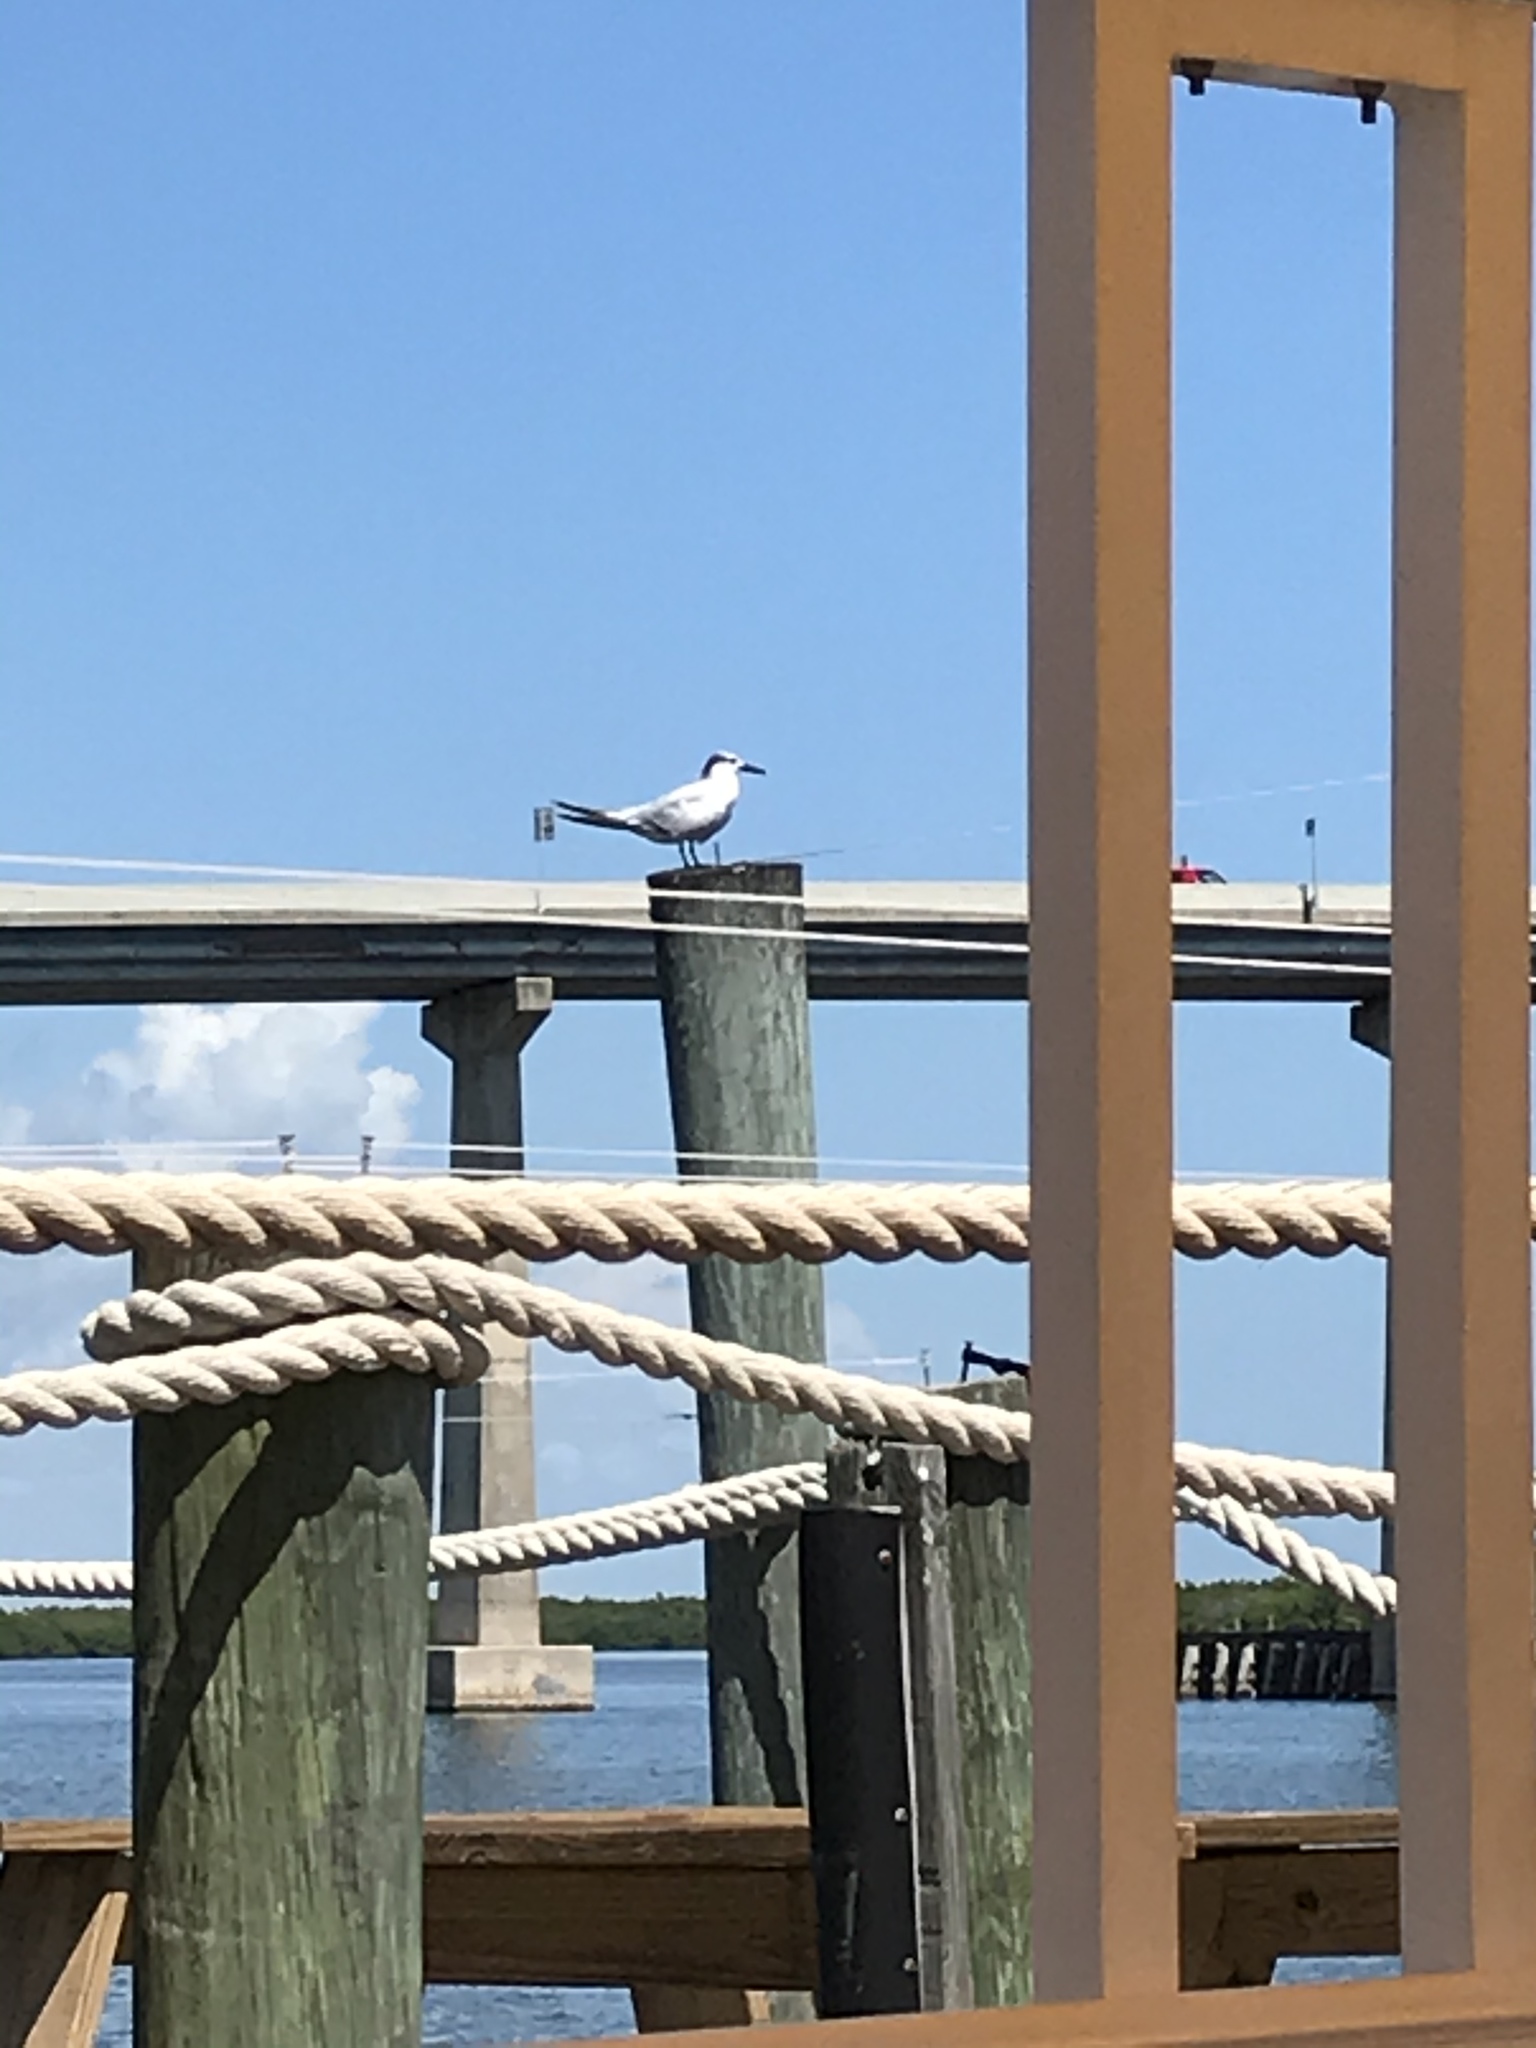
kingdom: Animalia
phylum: Chordata
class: Aves
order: Charadriiformes
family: Laridae
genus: Thalasseus
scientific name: Thalasseus sandvicensis
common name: Sandwich tern
